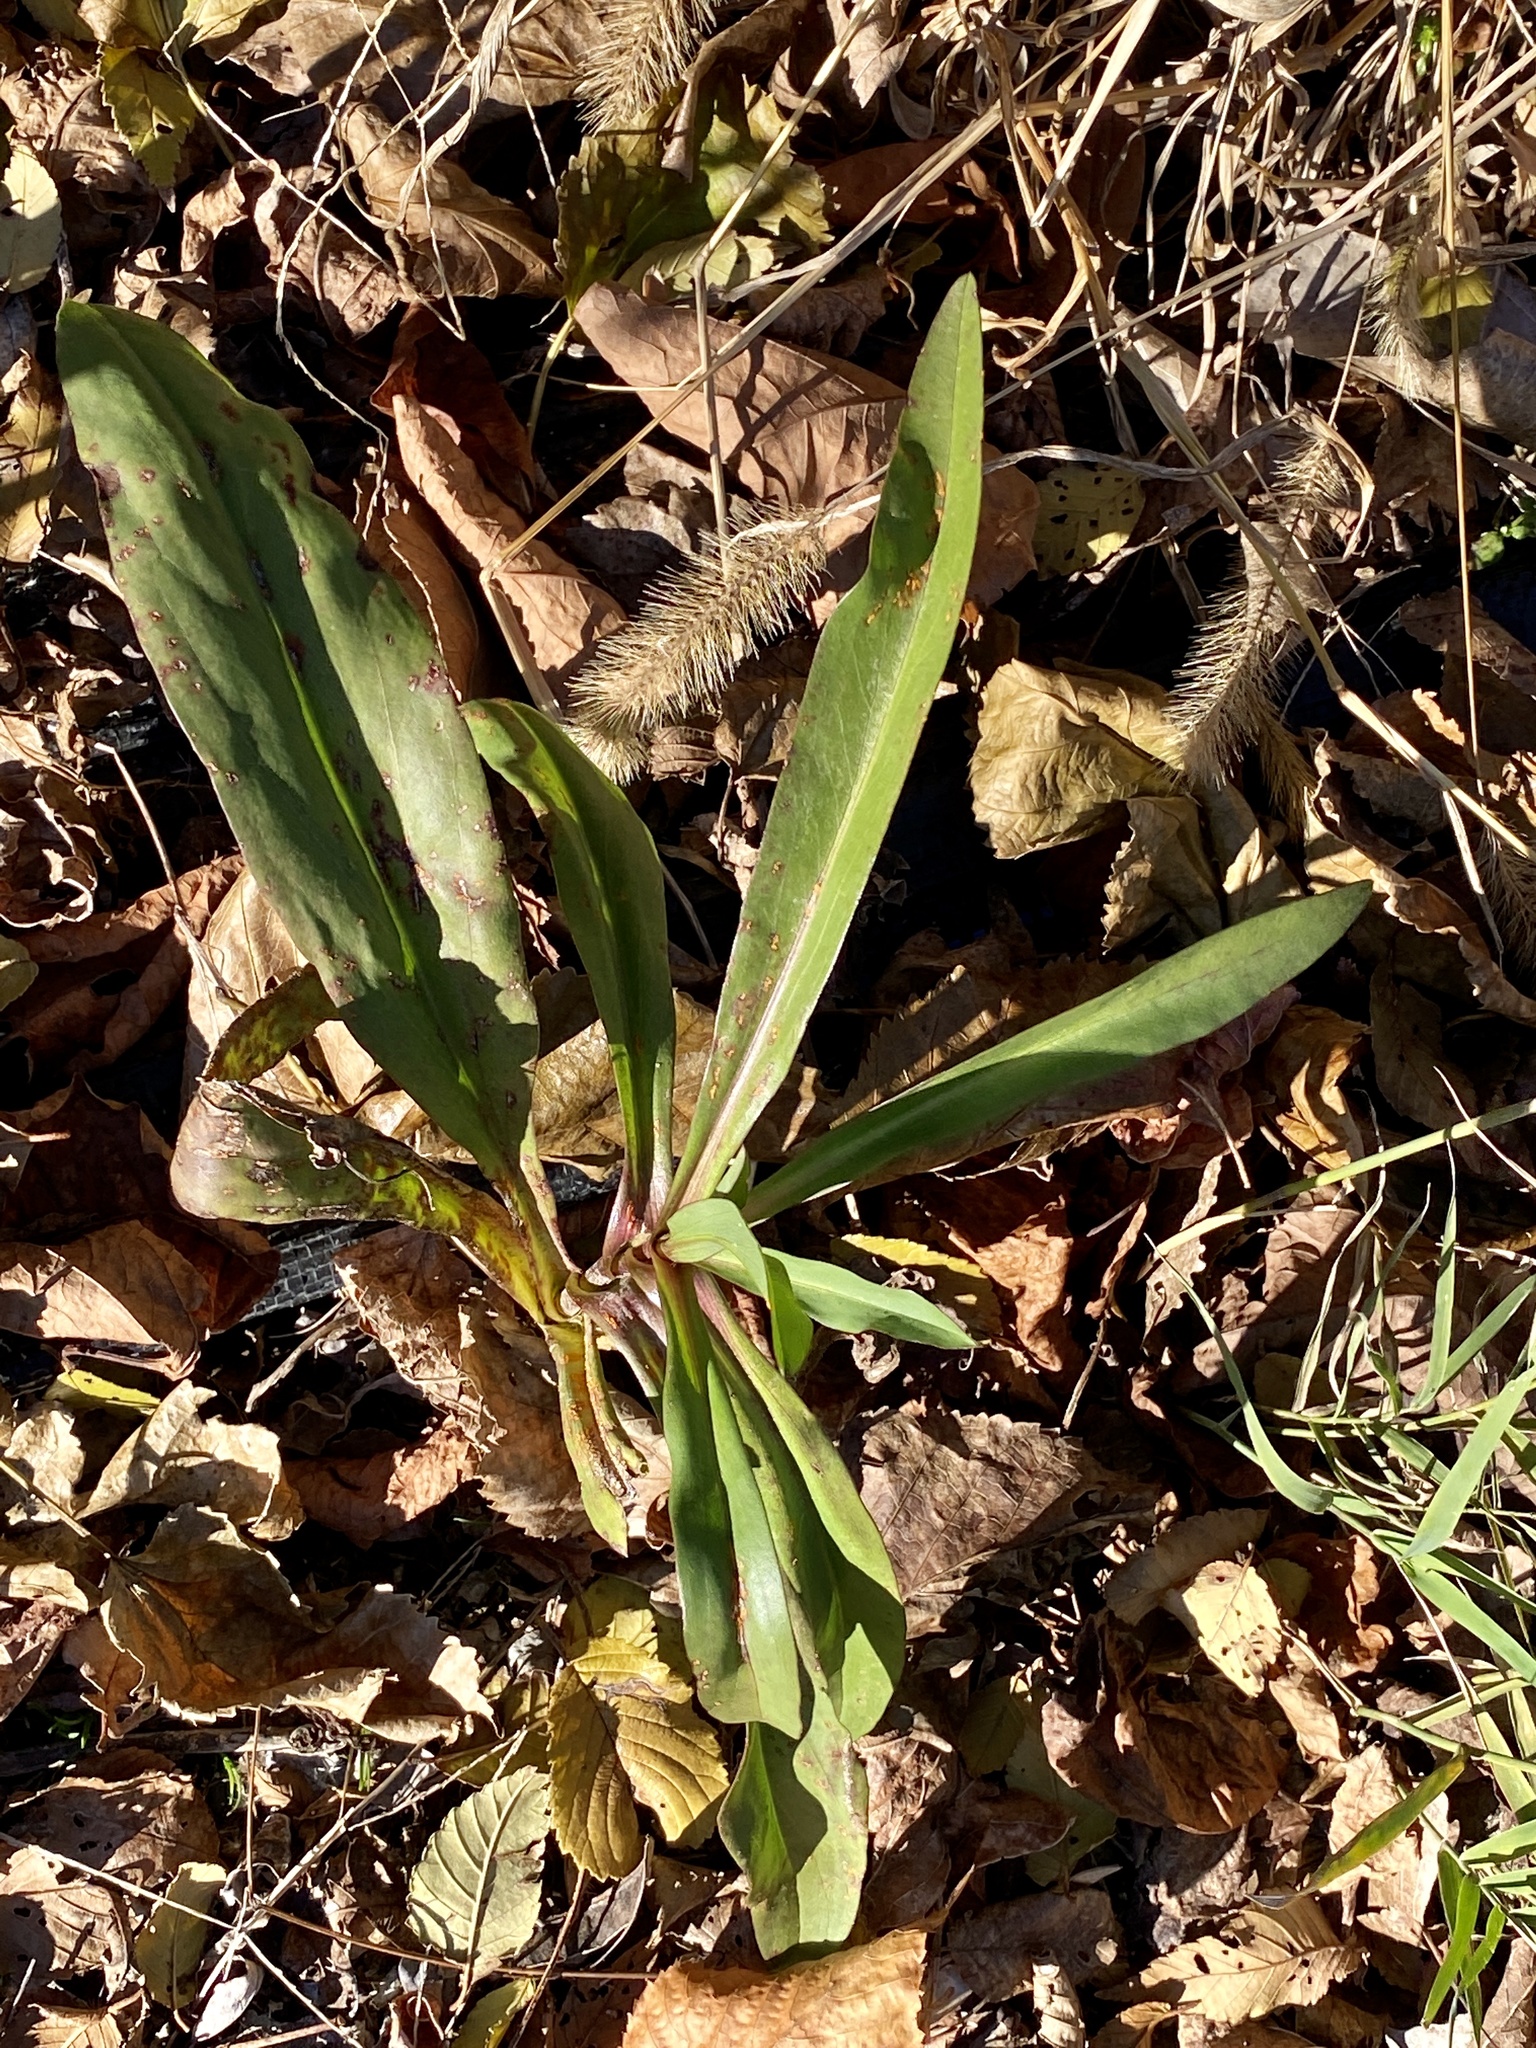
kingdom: Plantae
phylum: Tracheophyta
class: Magnoliopsida
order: Asterales
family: Asteraceae
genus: Solidago
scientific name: Solidago sempervirens
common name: Salt-marsh goldenrod
